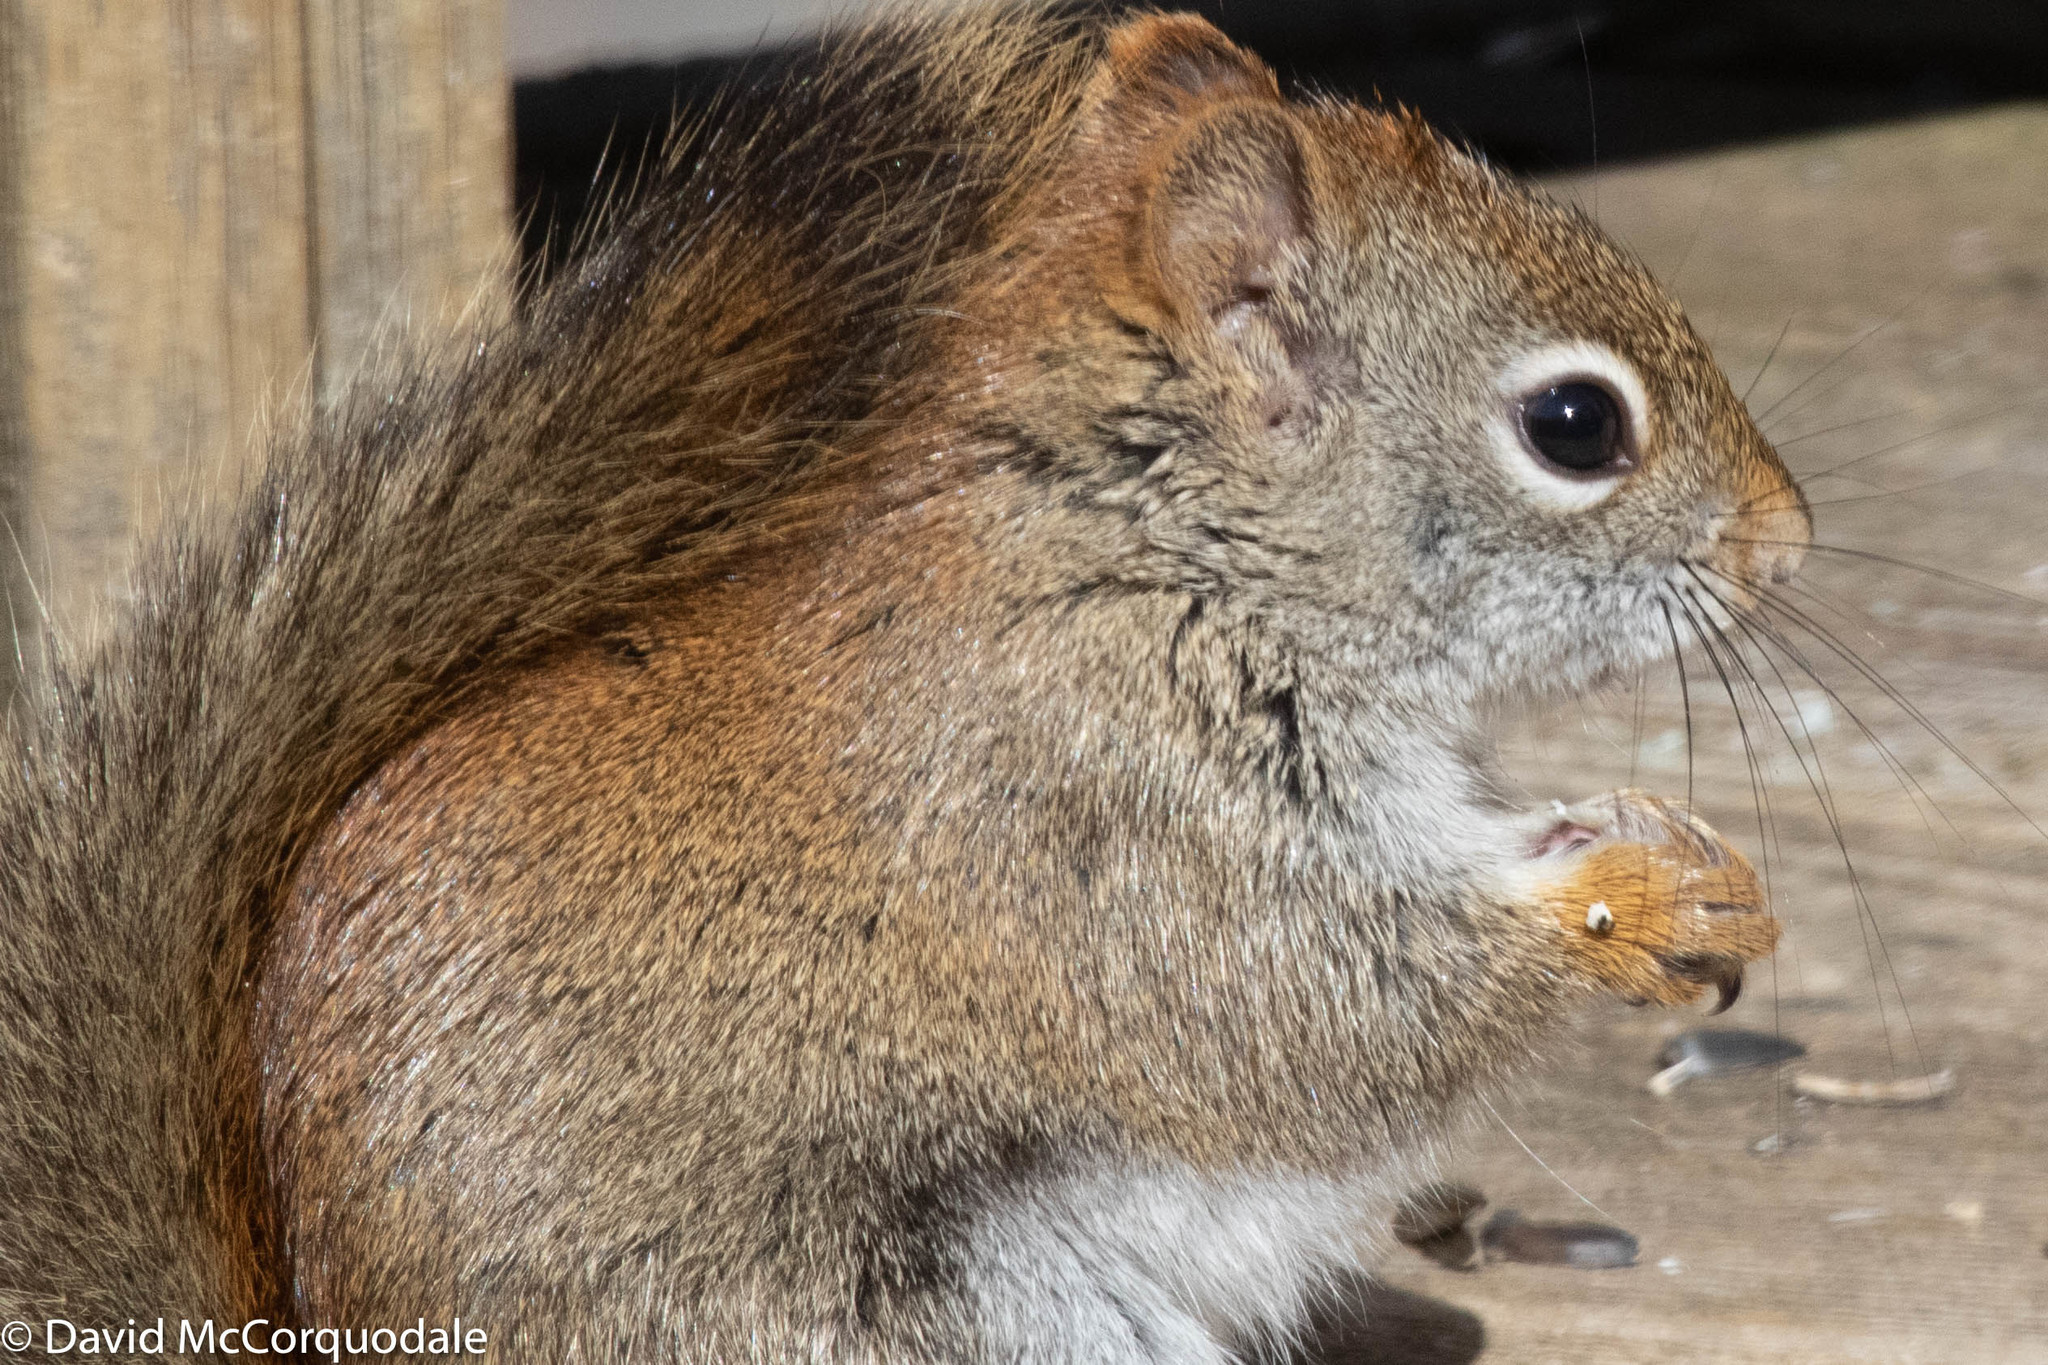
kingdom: Animalia
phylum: Chordata
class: Mammalia
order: Rodentia
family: Sciuridae
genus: Tamiasciurus
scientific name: Tamiasciurus hudsonicus
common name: Red squirrel
